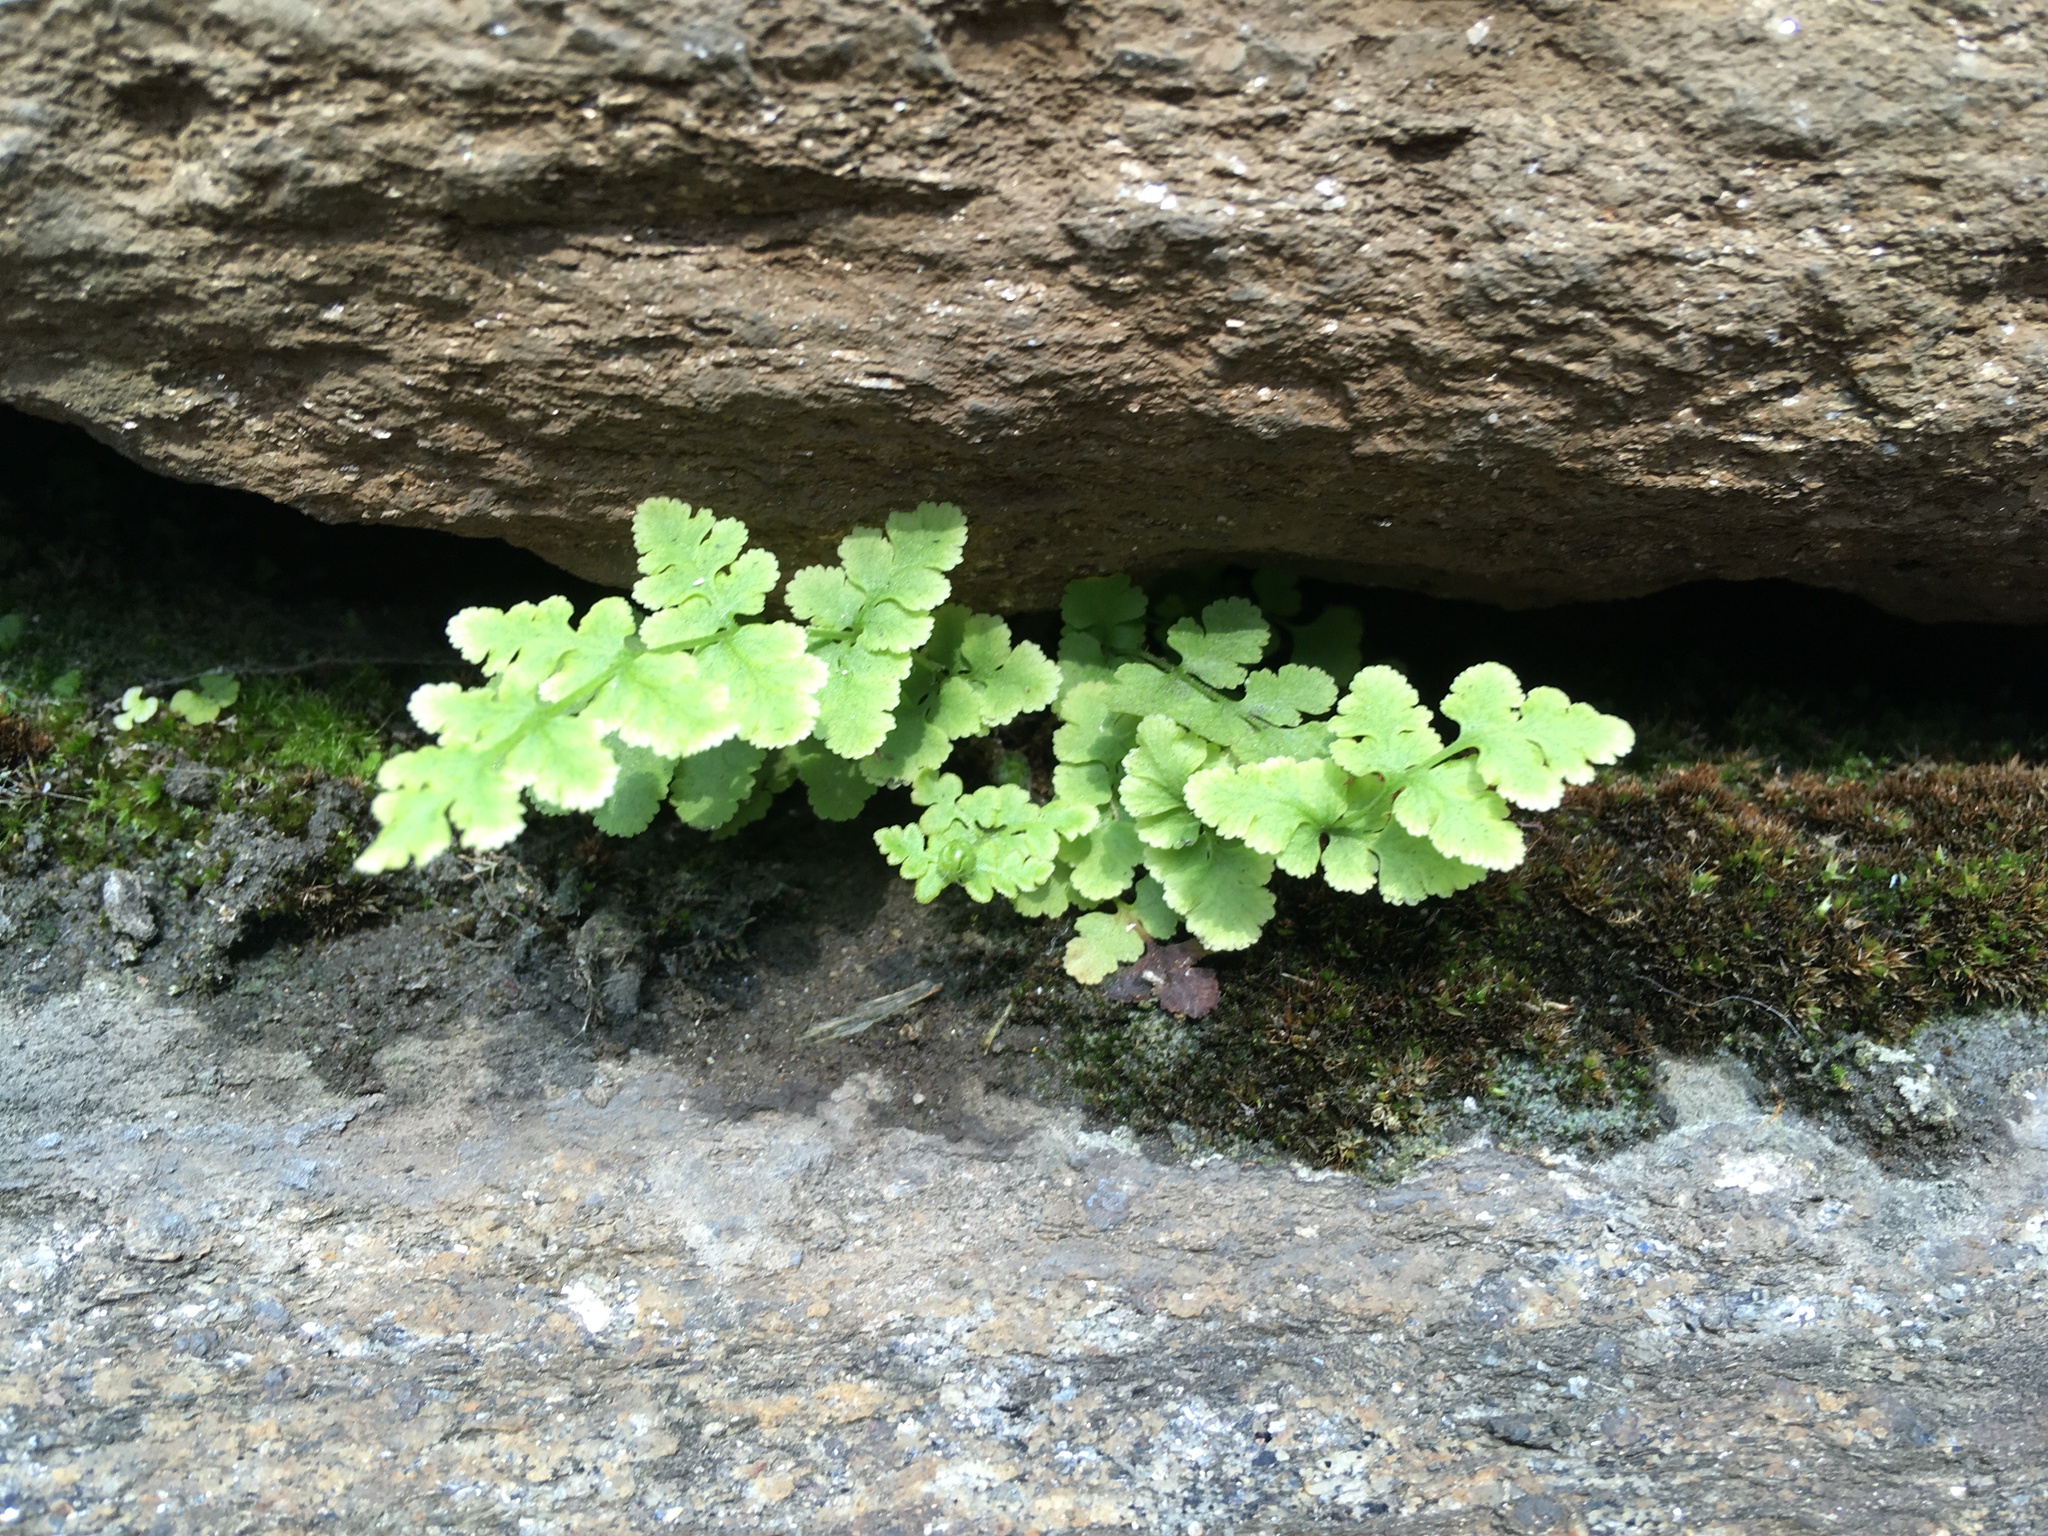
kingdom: Plantae
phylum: Tracheophyta
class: Polypodiopsida
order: Polypodiales
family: Woodsiaceae
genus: Physematium
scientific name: Physematium obtusum
